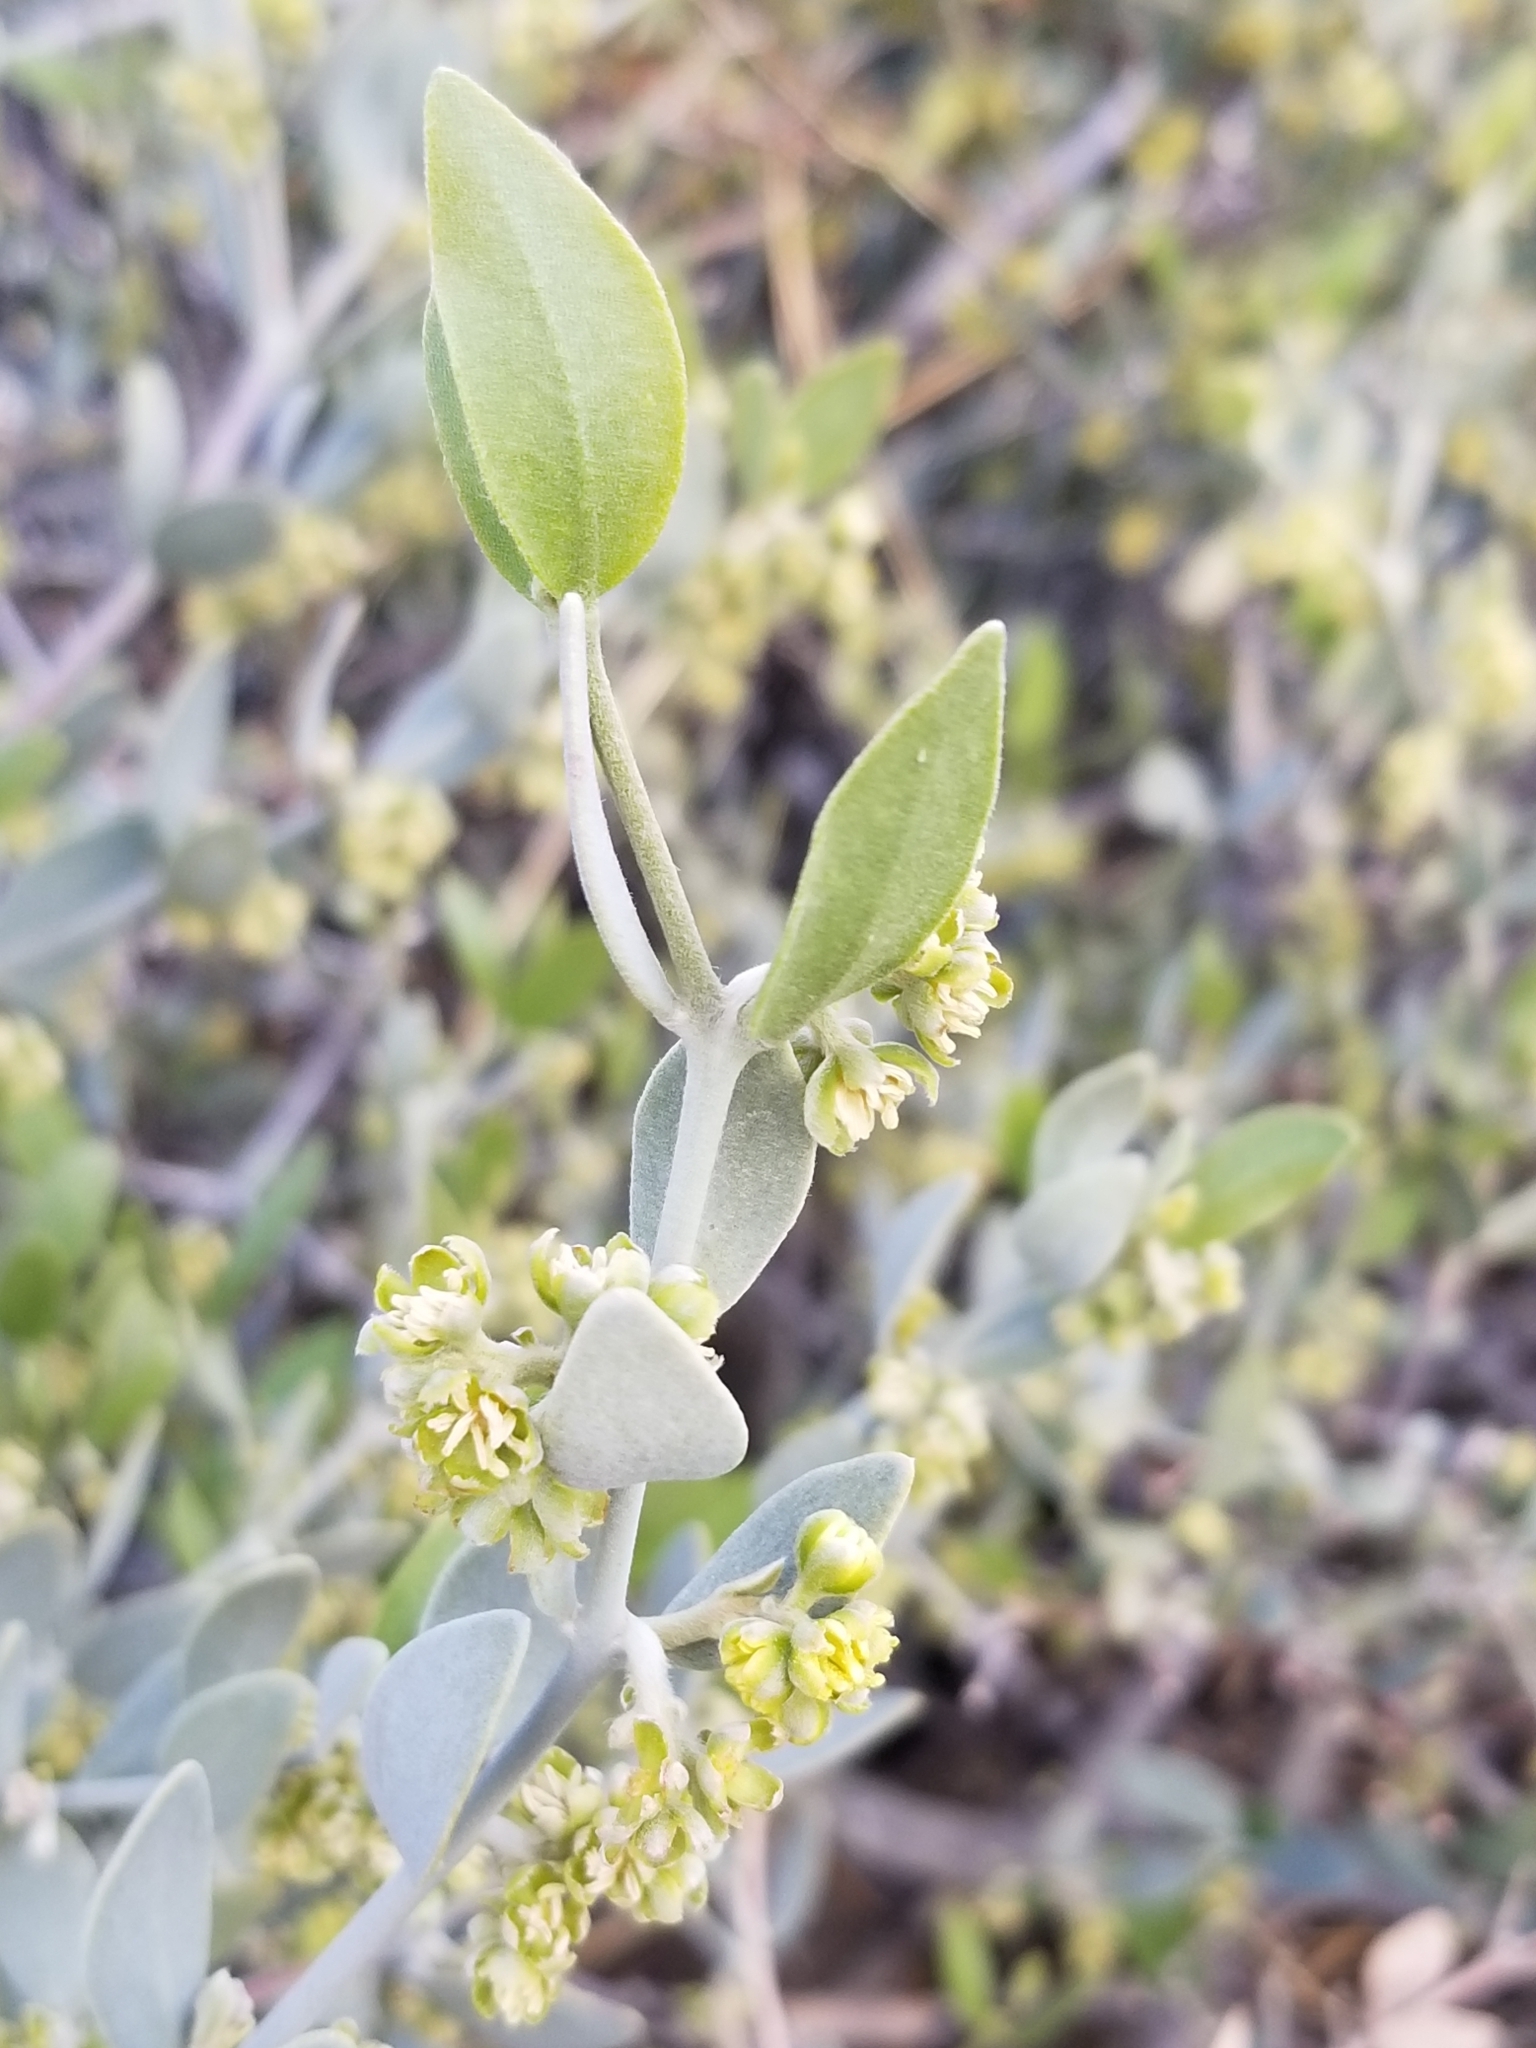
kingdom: Plantae
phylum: Tracheophyta
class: Magnoliopsida
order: Caryophyllales
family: Simmondsiaceae
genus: Simmondsia
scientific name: Simmondsia chinensis
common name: Jojoba
